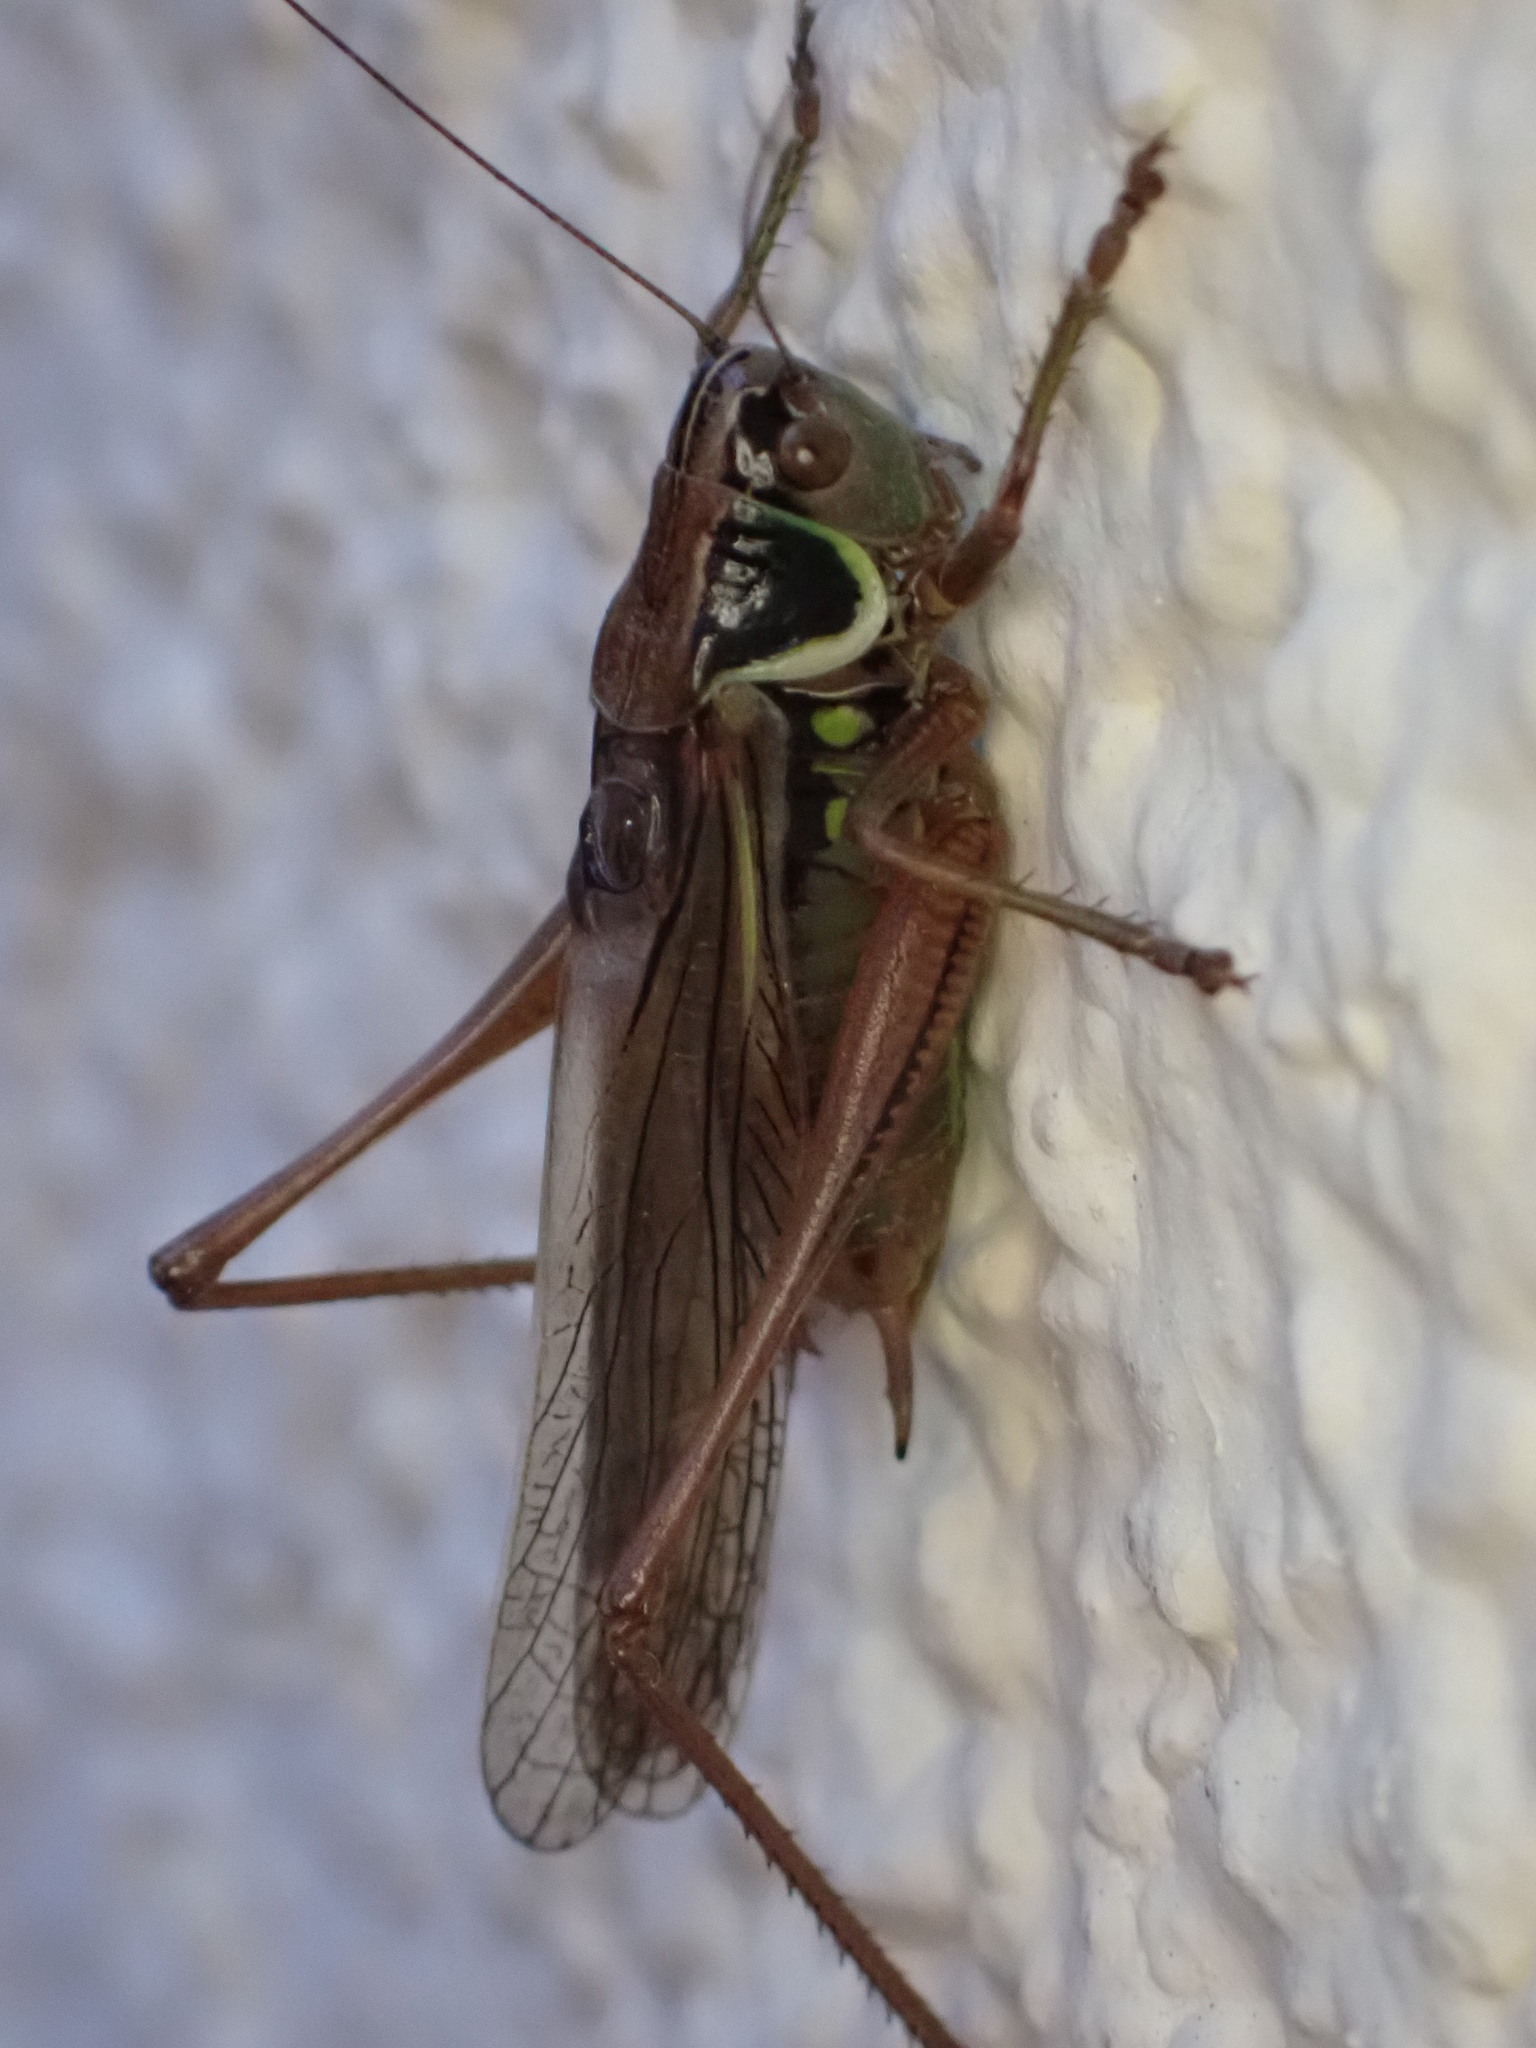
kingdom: Animalia
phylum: Arthropoda
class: Insecta
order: Orthoptera
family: Tettigoniidae
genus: Roeseliana
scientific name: Roeseliana roeselii
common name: Roesel's bush cricket
